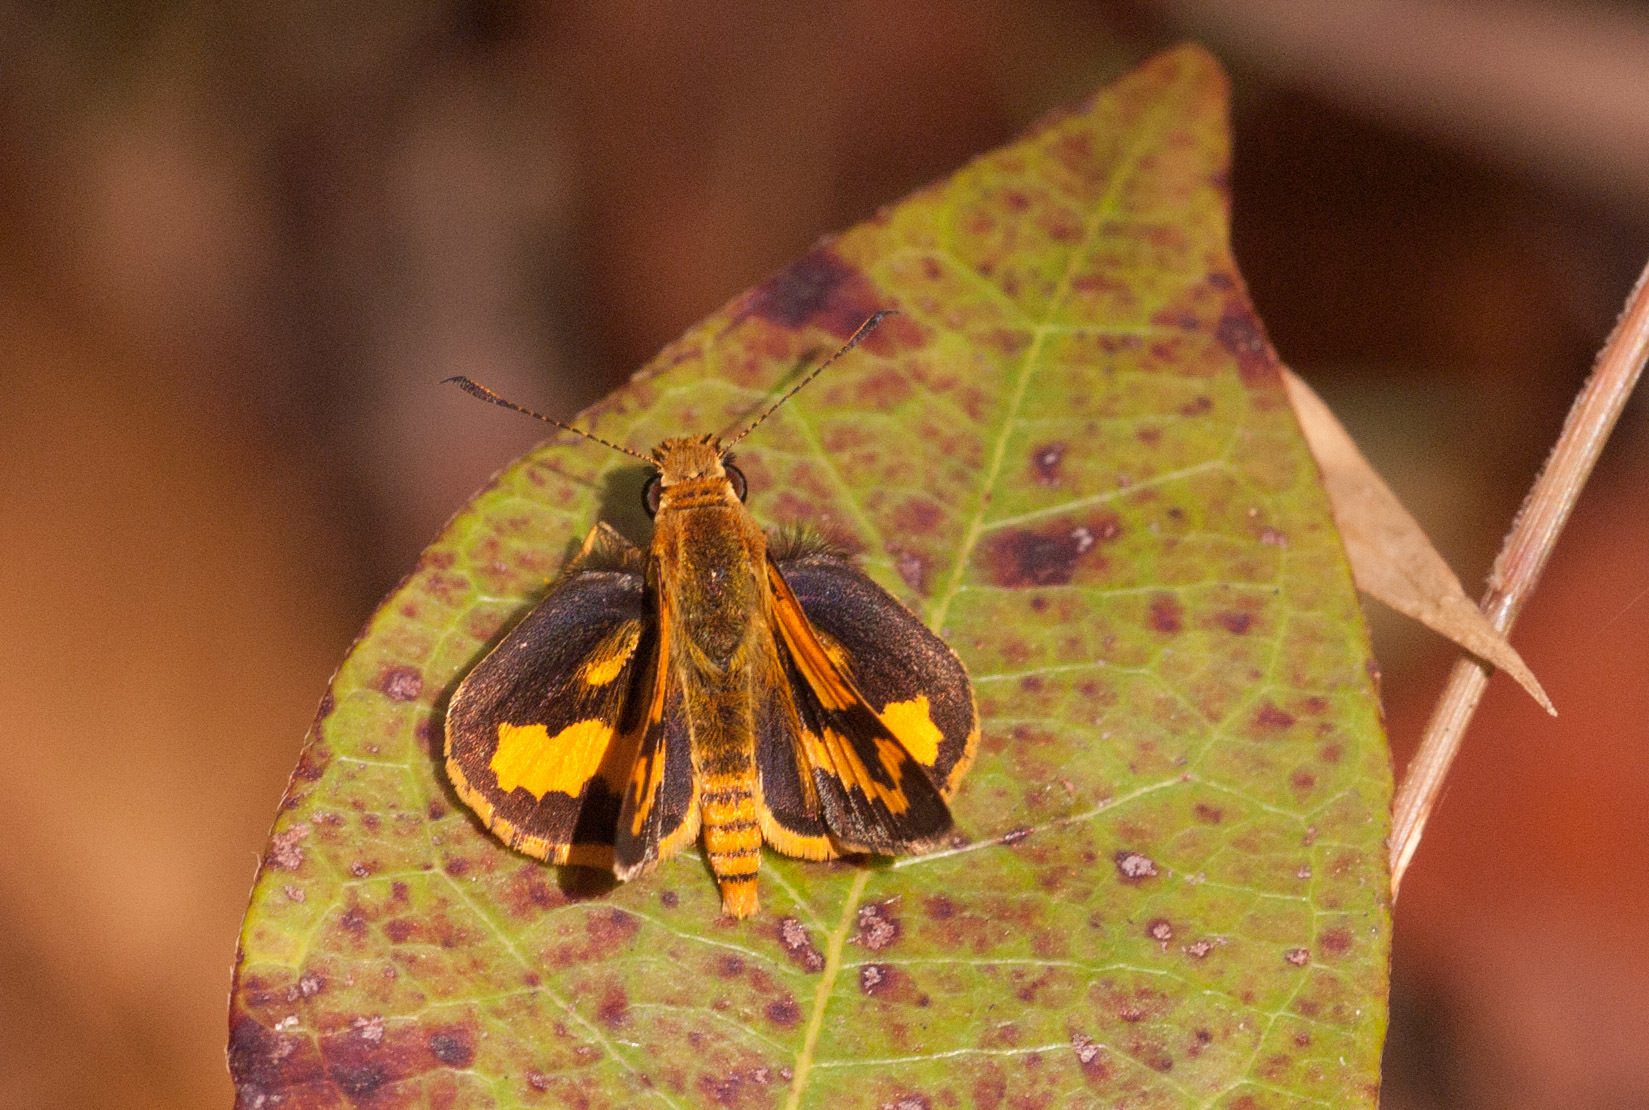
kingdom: Animalia
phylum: Arthropoda
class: Insecta
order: Lepidoptera
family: Hesperiidae
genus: Ocybadistes
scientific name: Ocybadistes ardea
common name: Dark orange dart
